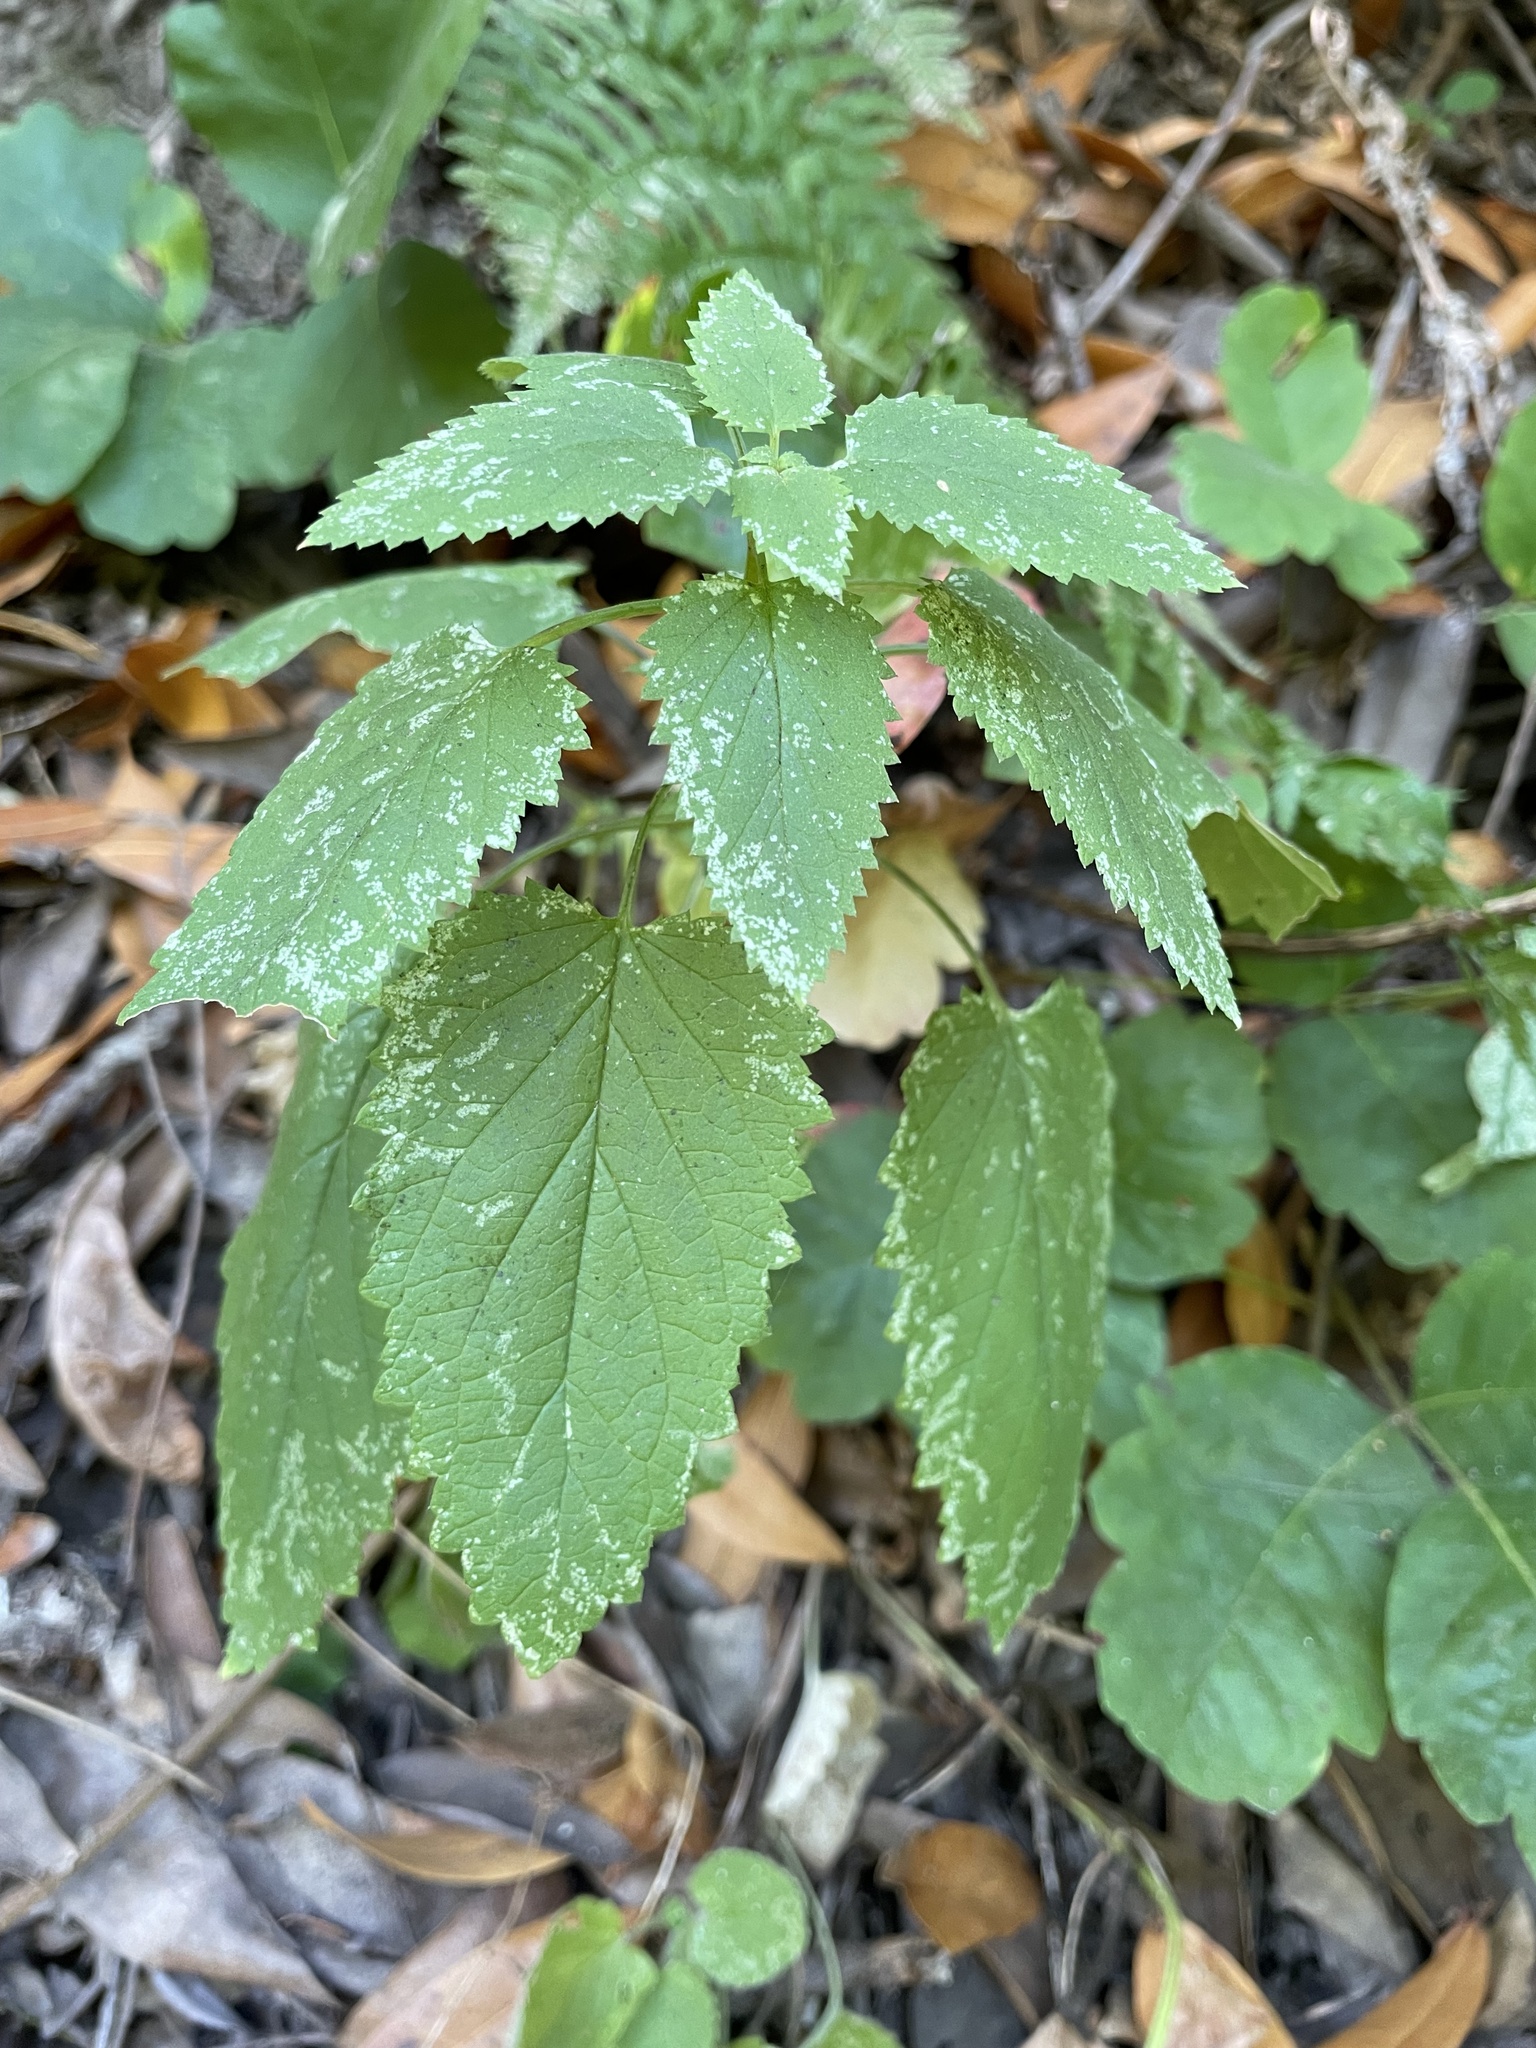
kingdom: Plantae
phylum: Tracheophyta
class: Magnoliopsida
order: Lamiales
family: Scrophulariaceae
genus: Scrophularia
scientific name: Scrophularia californica
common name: California figwort
